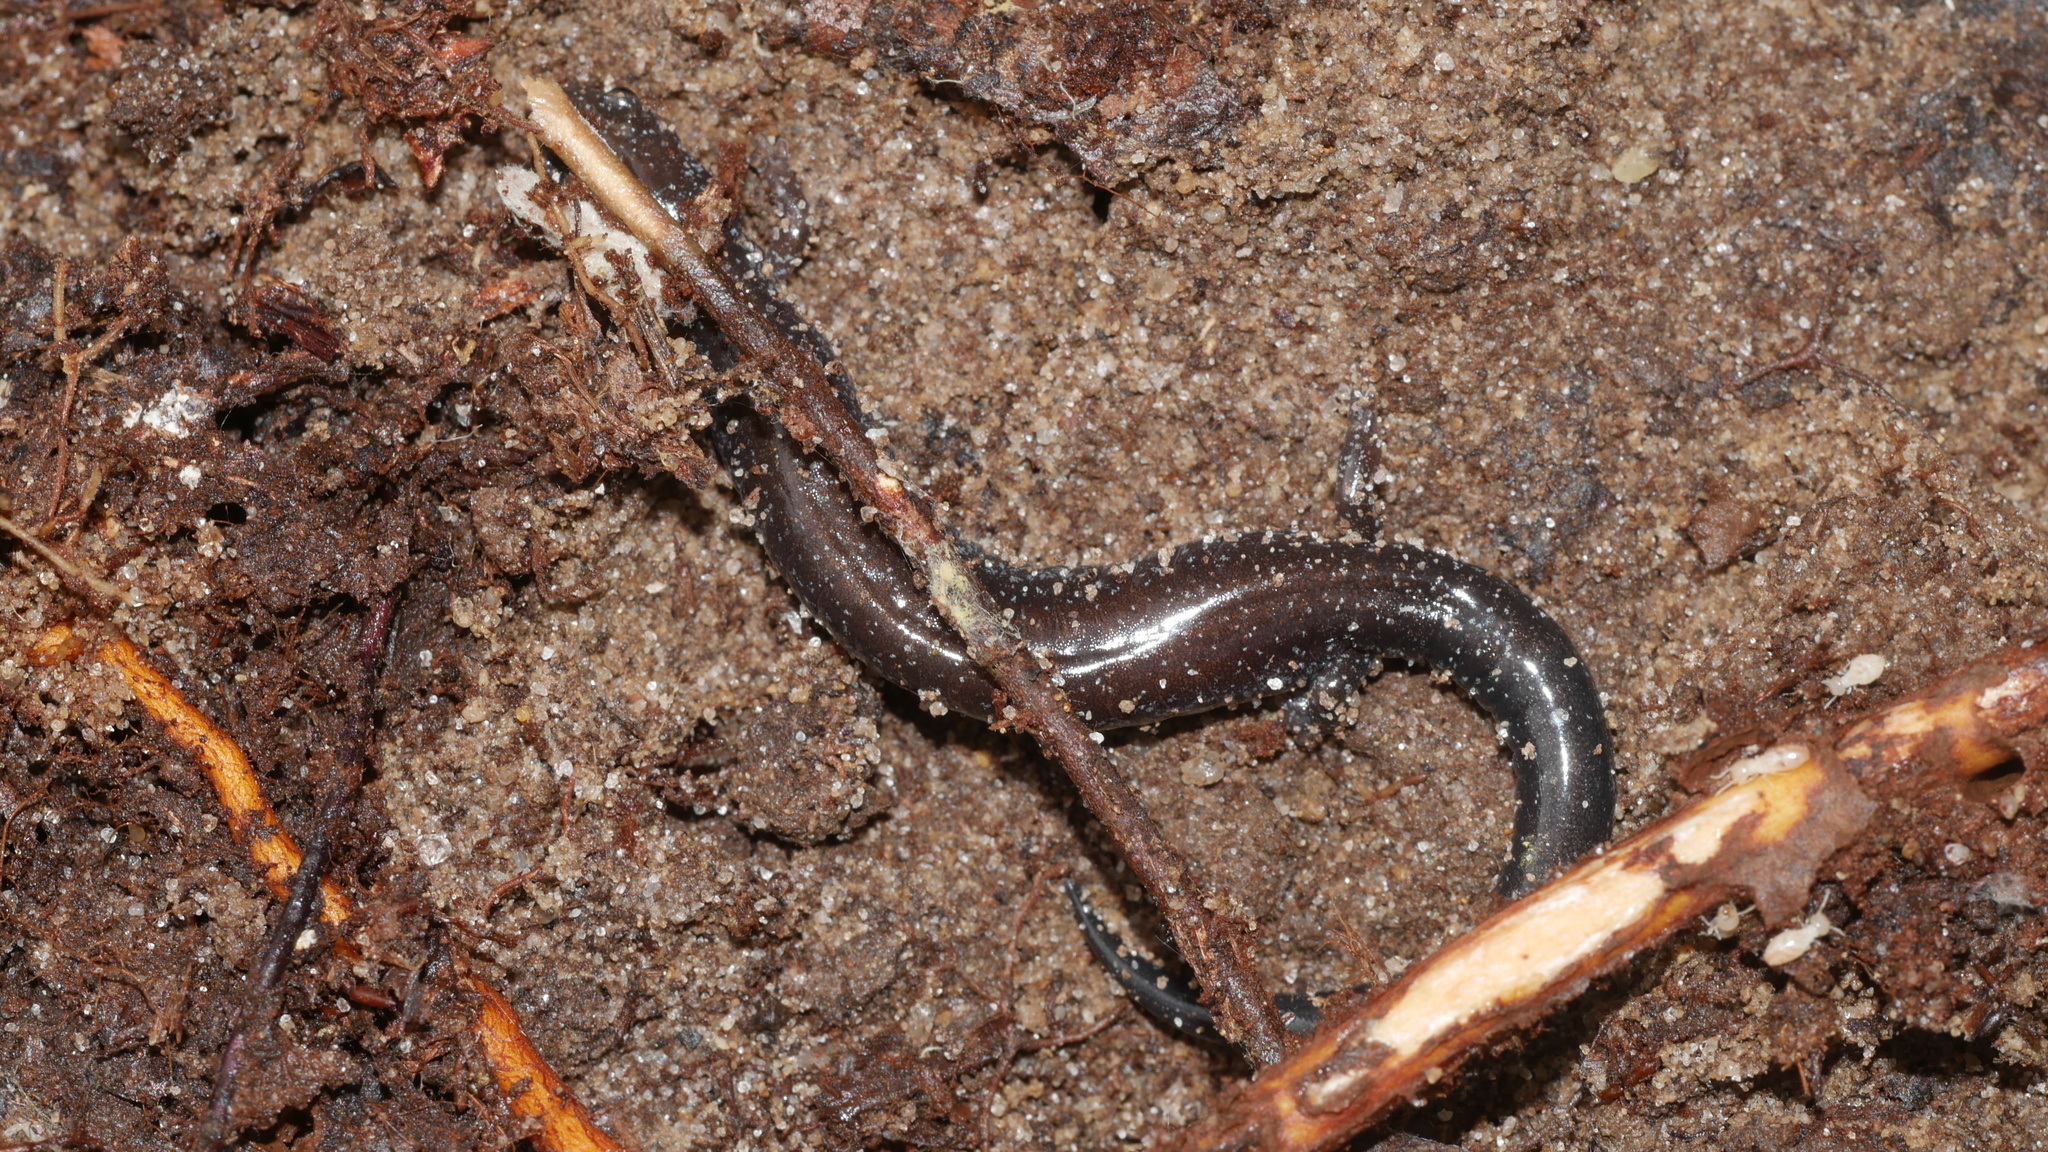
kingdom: Animalia
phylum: Chordata
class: Amphibia
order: Caudata
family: Plethodontidae
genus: Plethodon
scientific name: Plethodon cinereus
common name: Redback salamander
